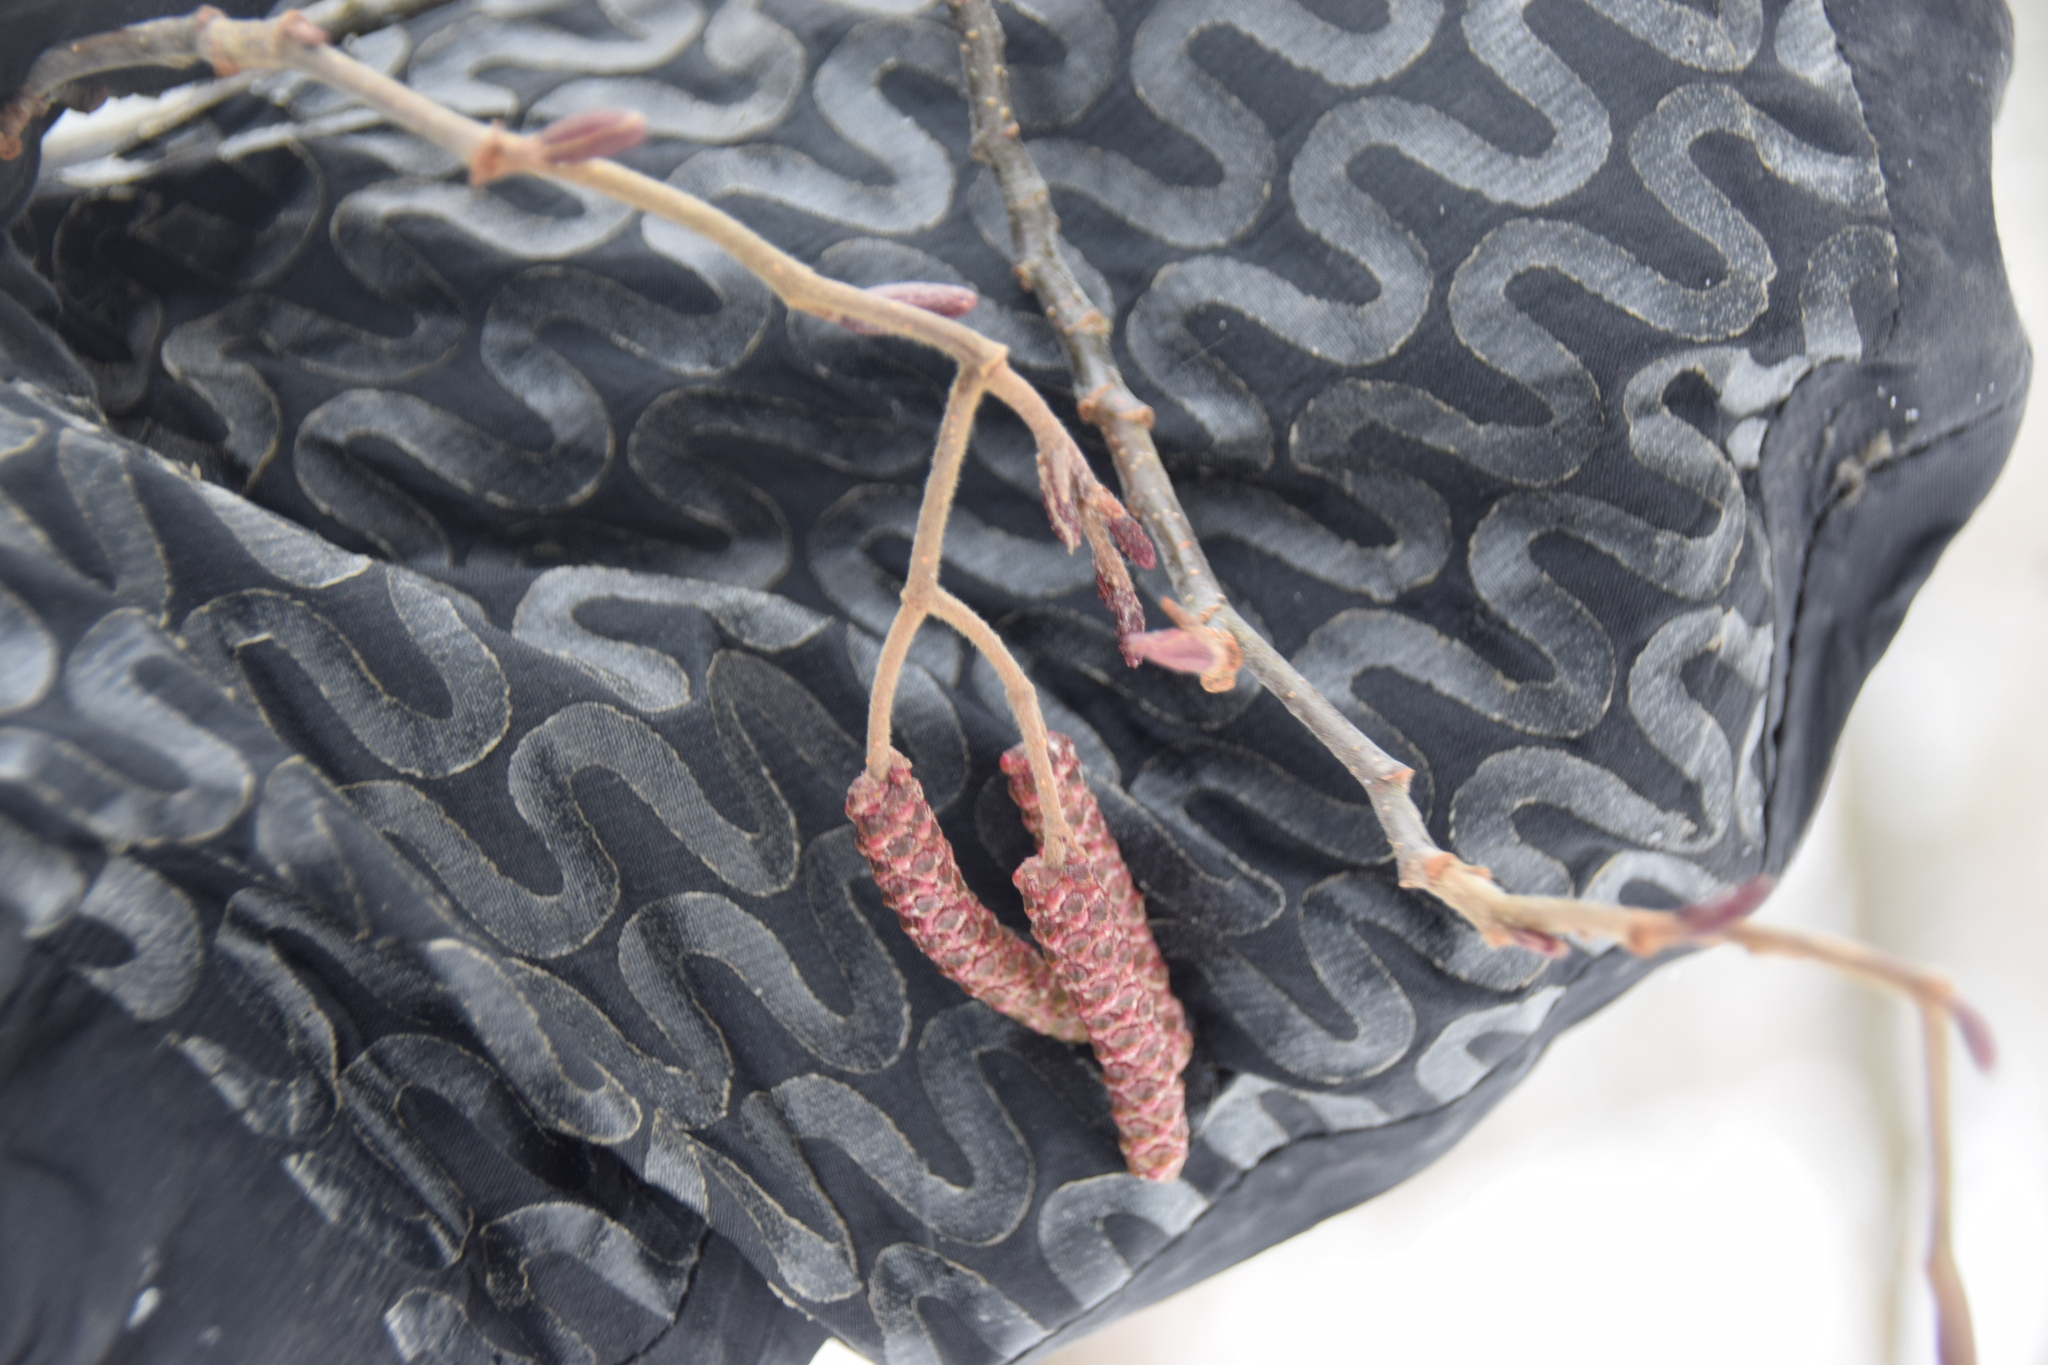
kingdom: Plantae
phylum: Tracheophyta
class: Magnoliopsida
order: Fagales
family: Betulaceae
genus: Alnus
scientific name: Alnus incana
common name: Grey alder
